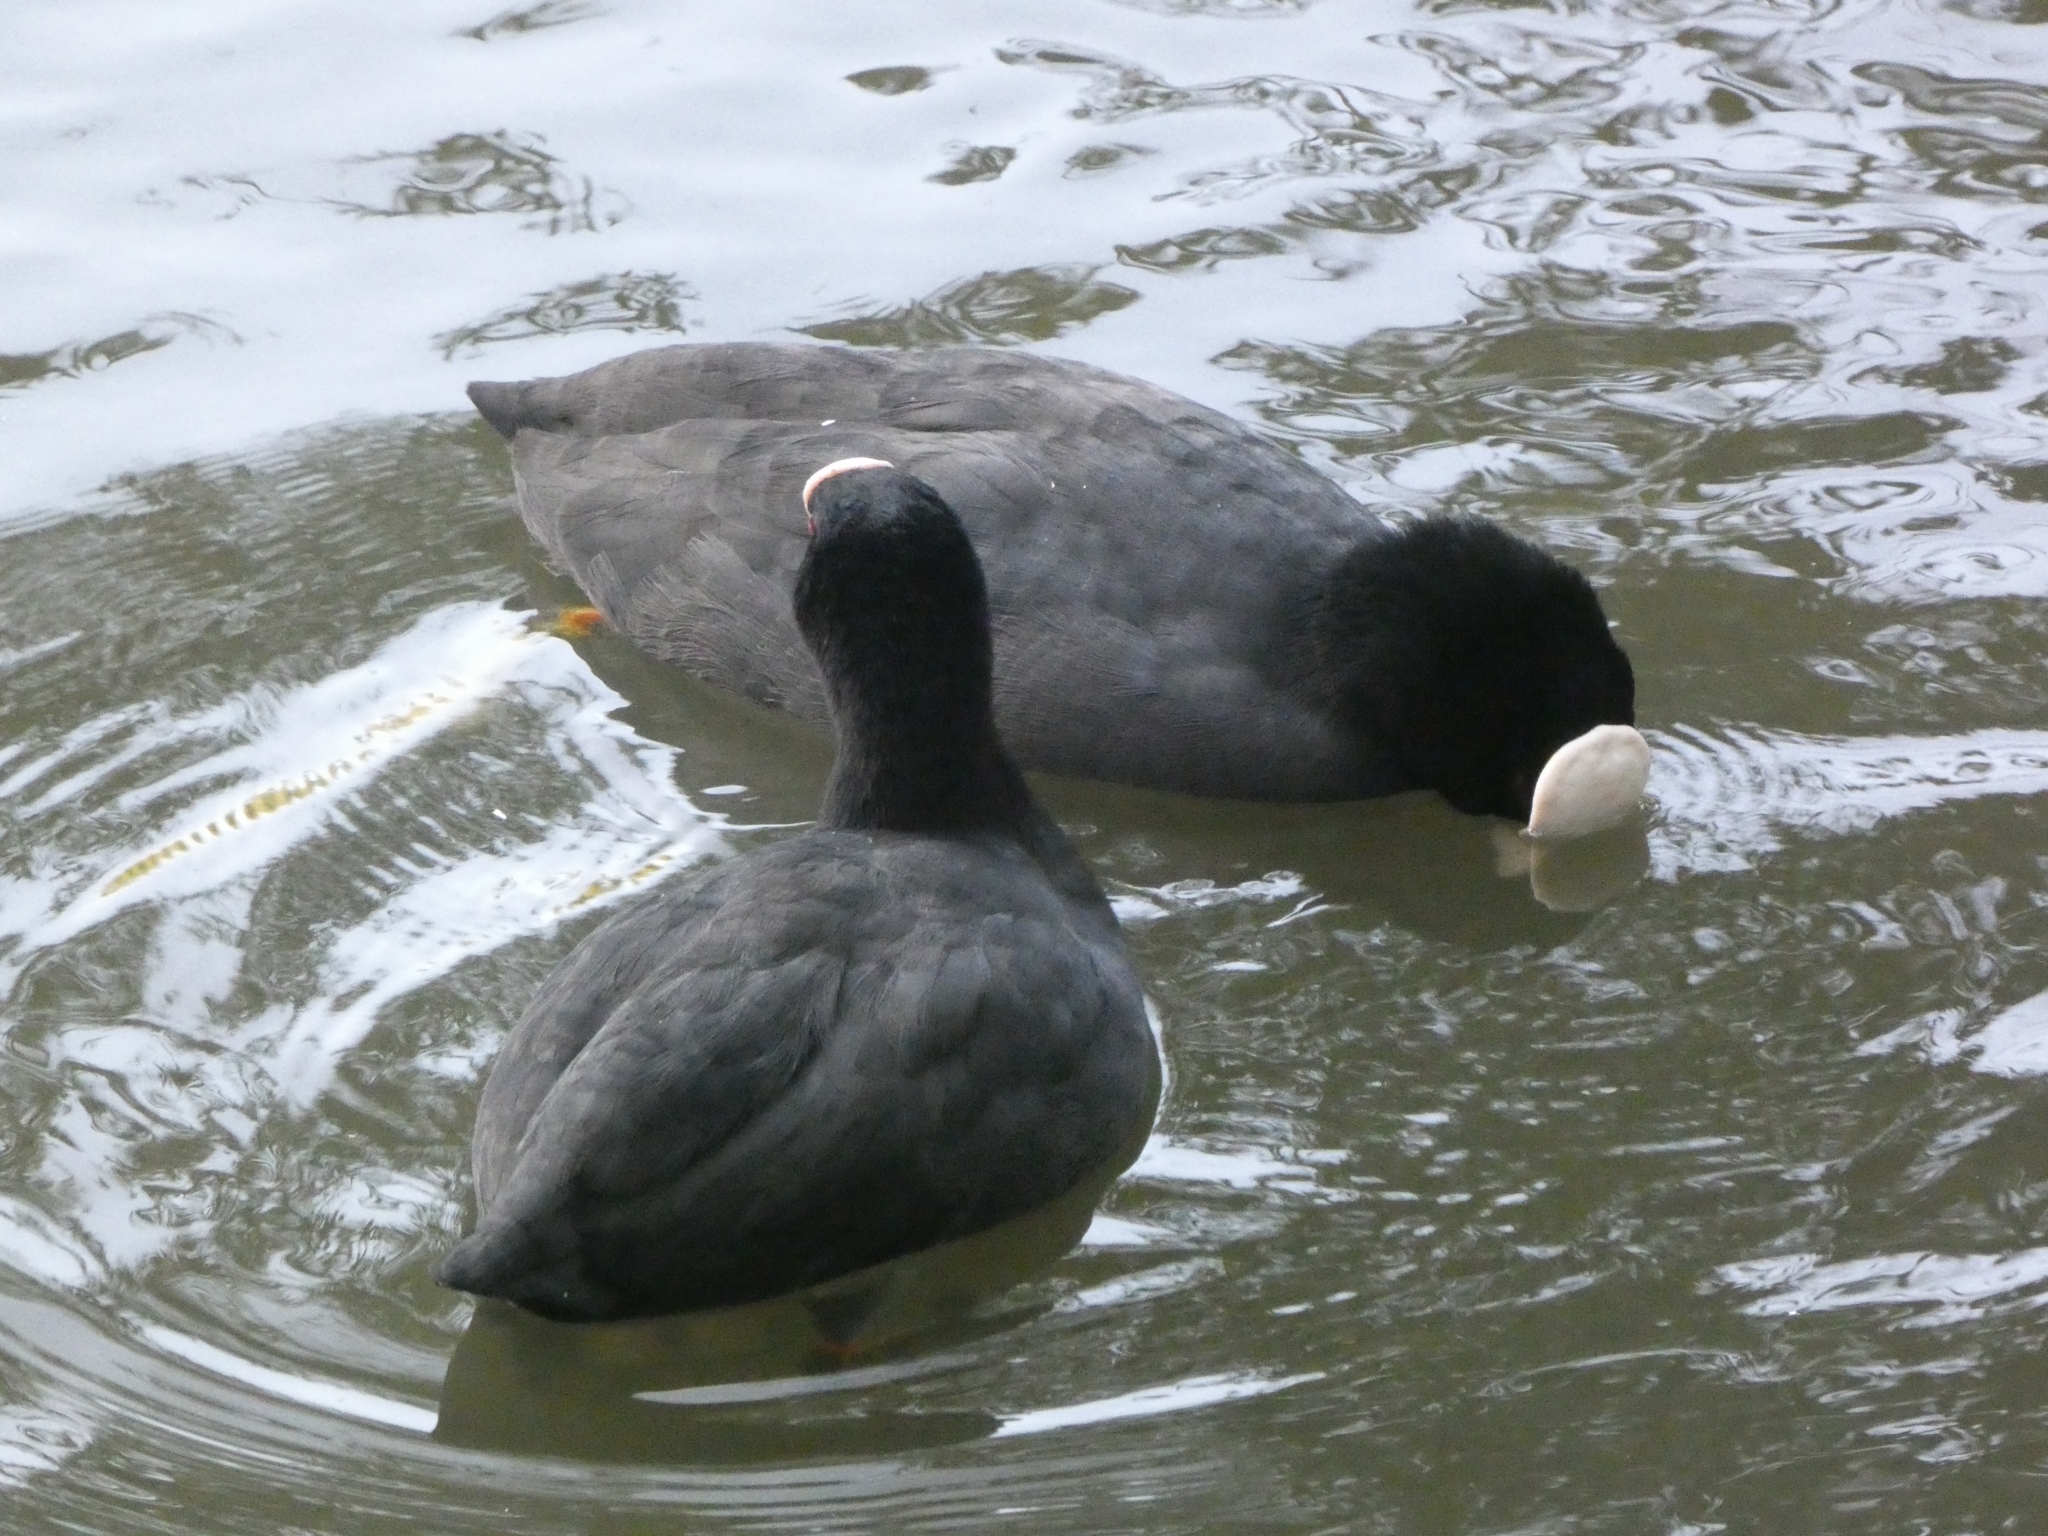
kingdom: Animalia
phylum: Chordata
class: Aves
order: Gruiformes
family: Rallidae
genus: Fulica
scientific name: Fulica atra
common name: Eurasian coot
